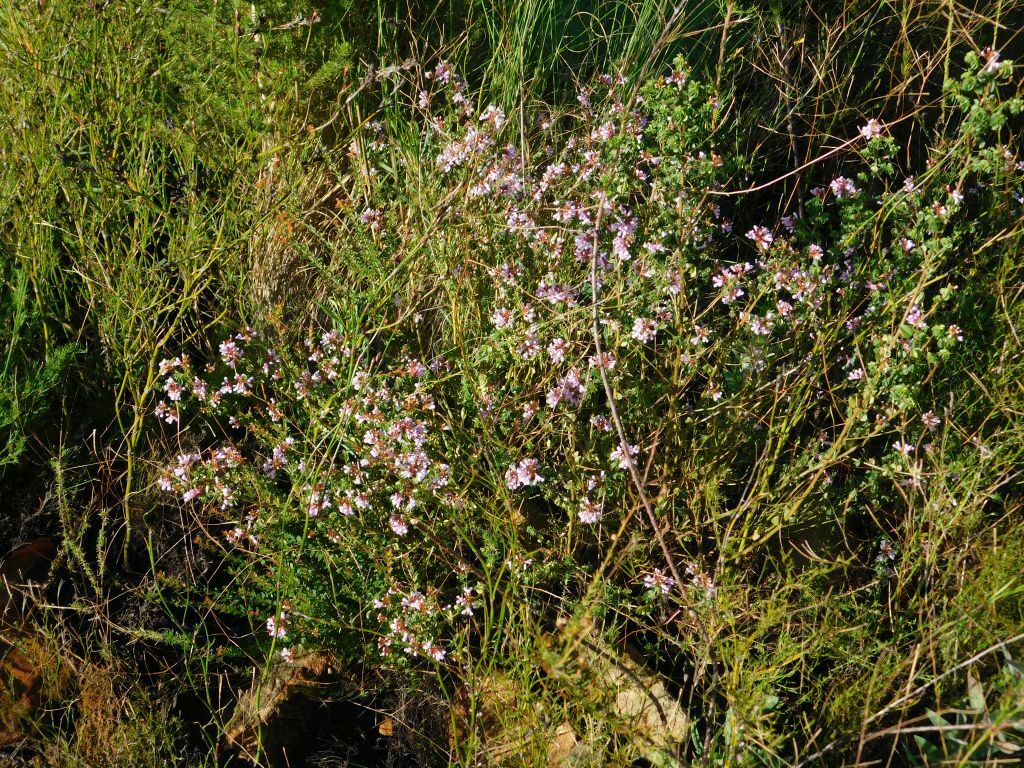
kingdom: Plantae
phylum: Tracheophyta
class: Magnoliopsida
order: Fabales
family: Fabaceae
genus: Hypocalyptus
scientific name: Hypocalyptus oxalidifolius
